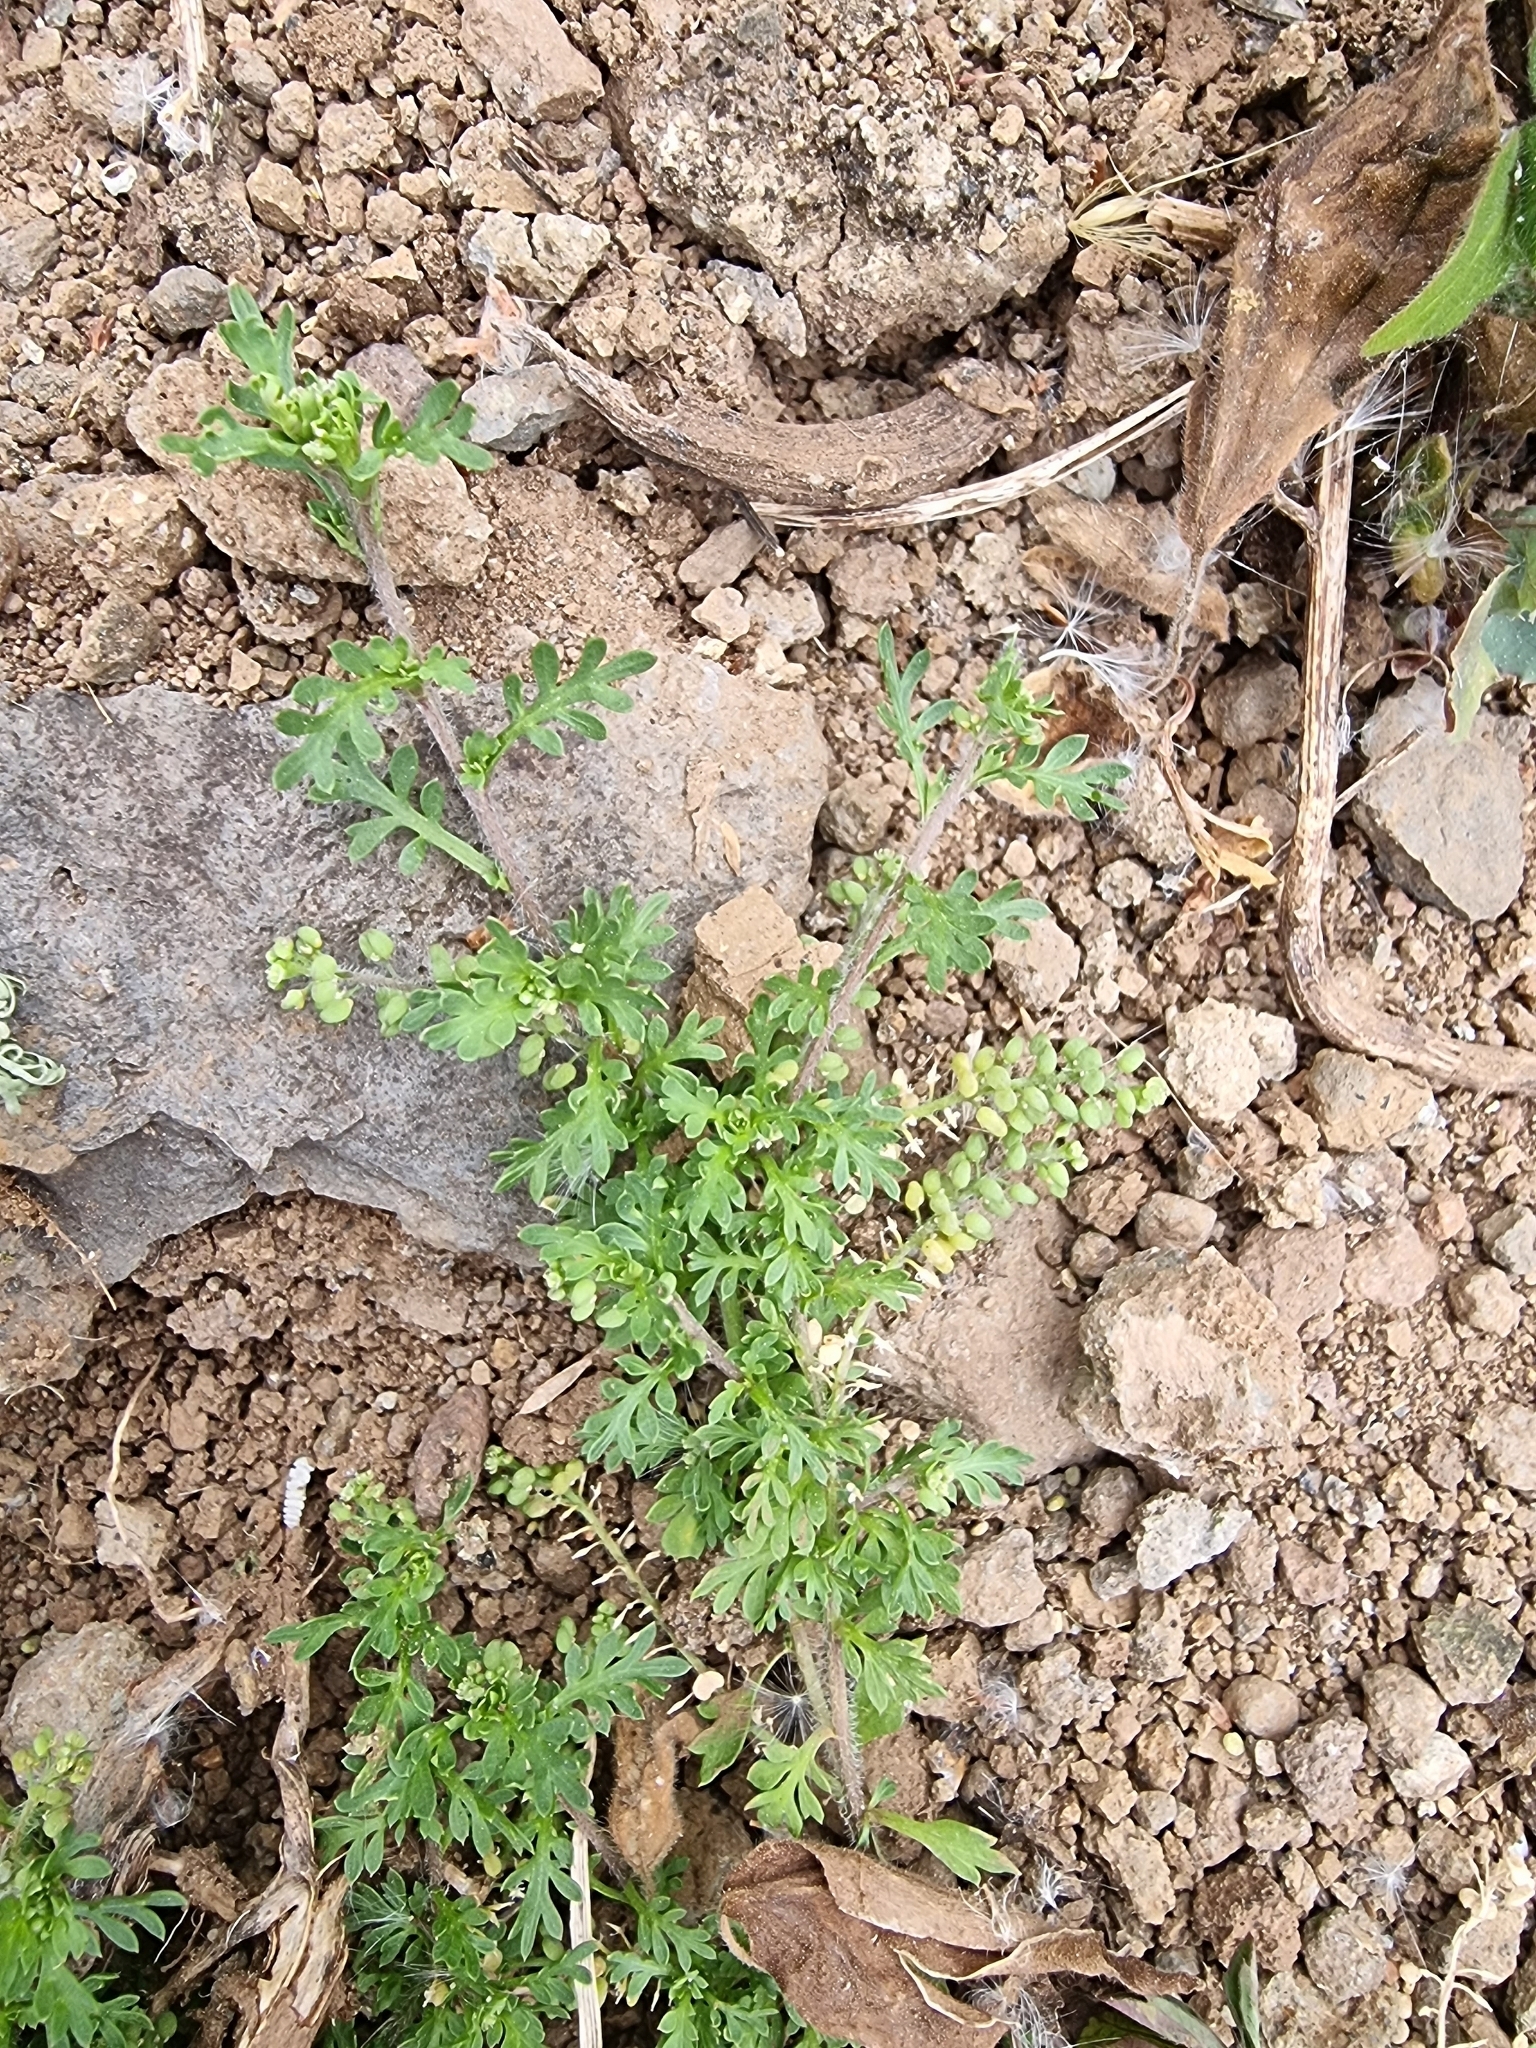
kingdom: Plantae
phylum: Tracheophyta
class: Magnoliopsida
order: Brassicales
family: Brassicaceae
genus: Lepidium
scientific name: Lepidium didymum
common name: Lesser swinecress
